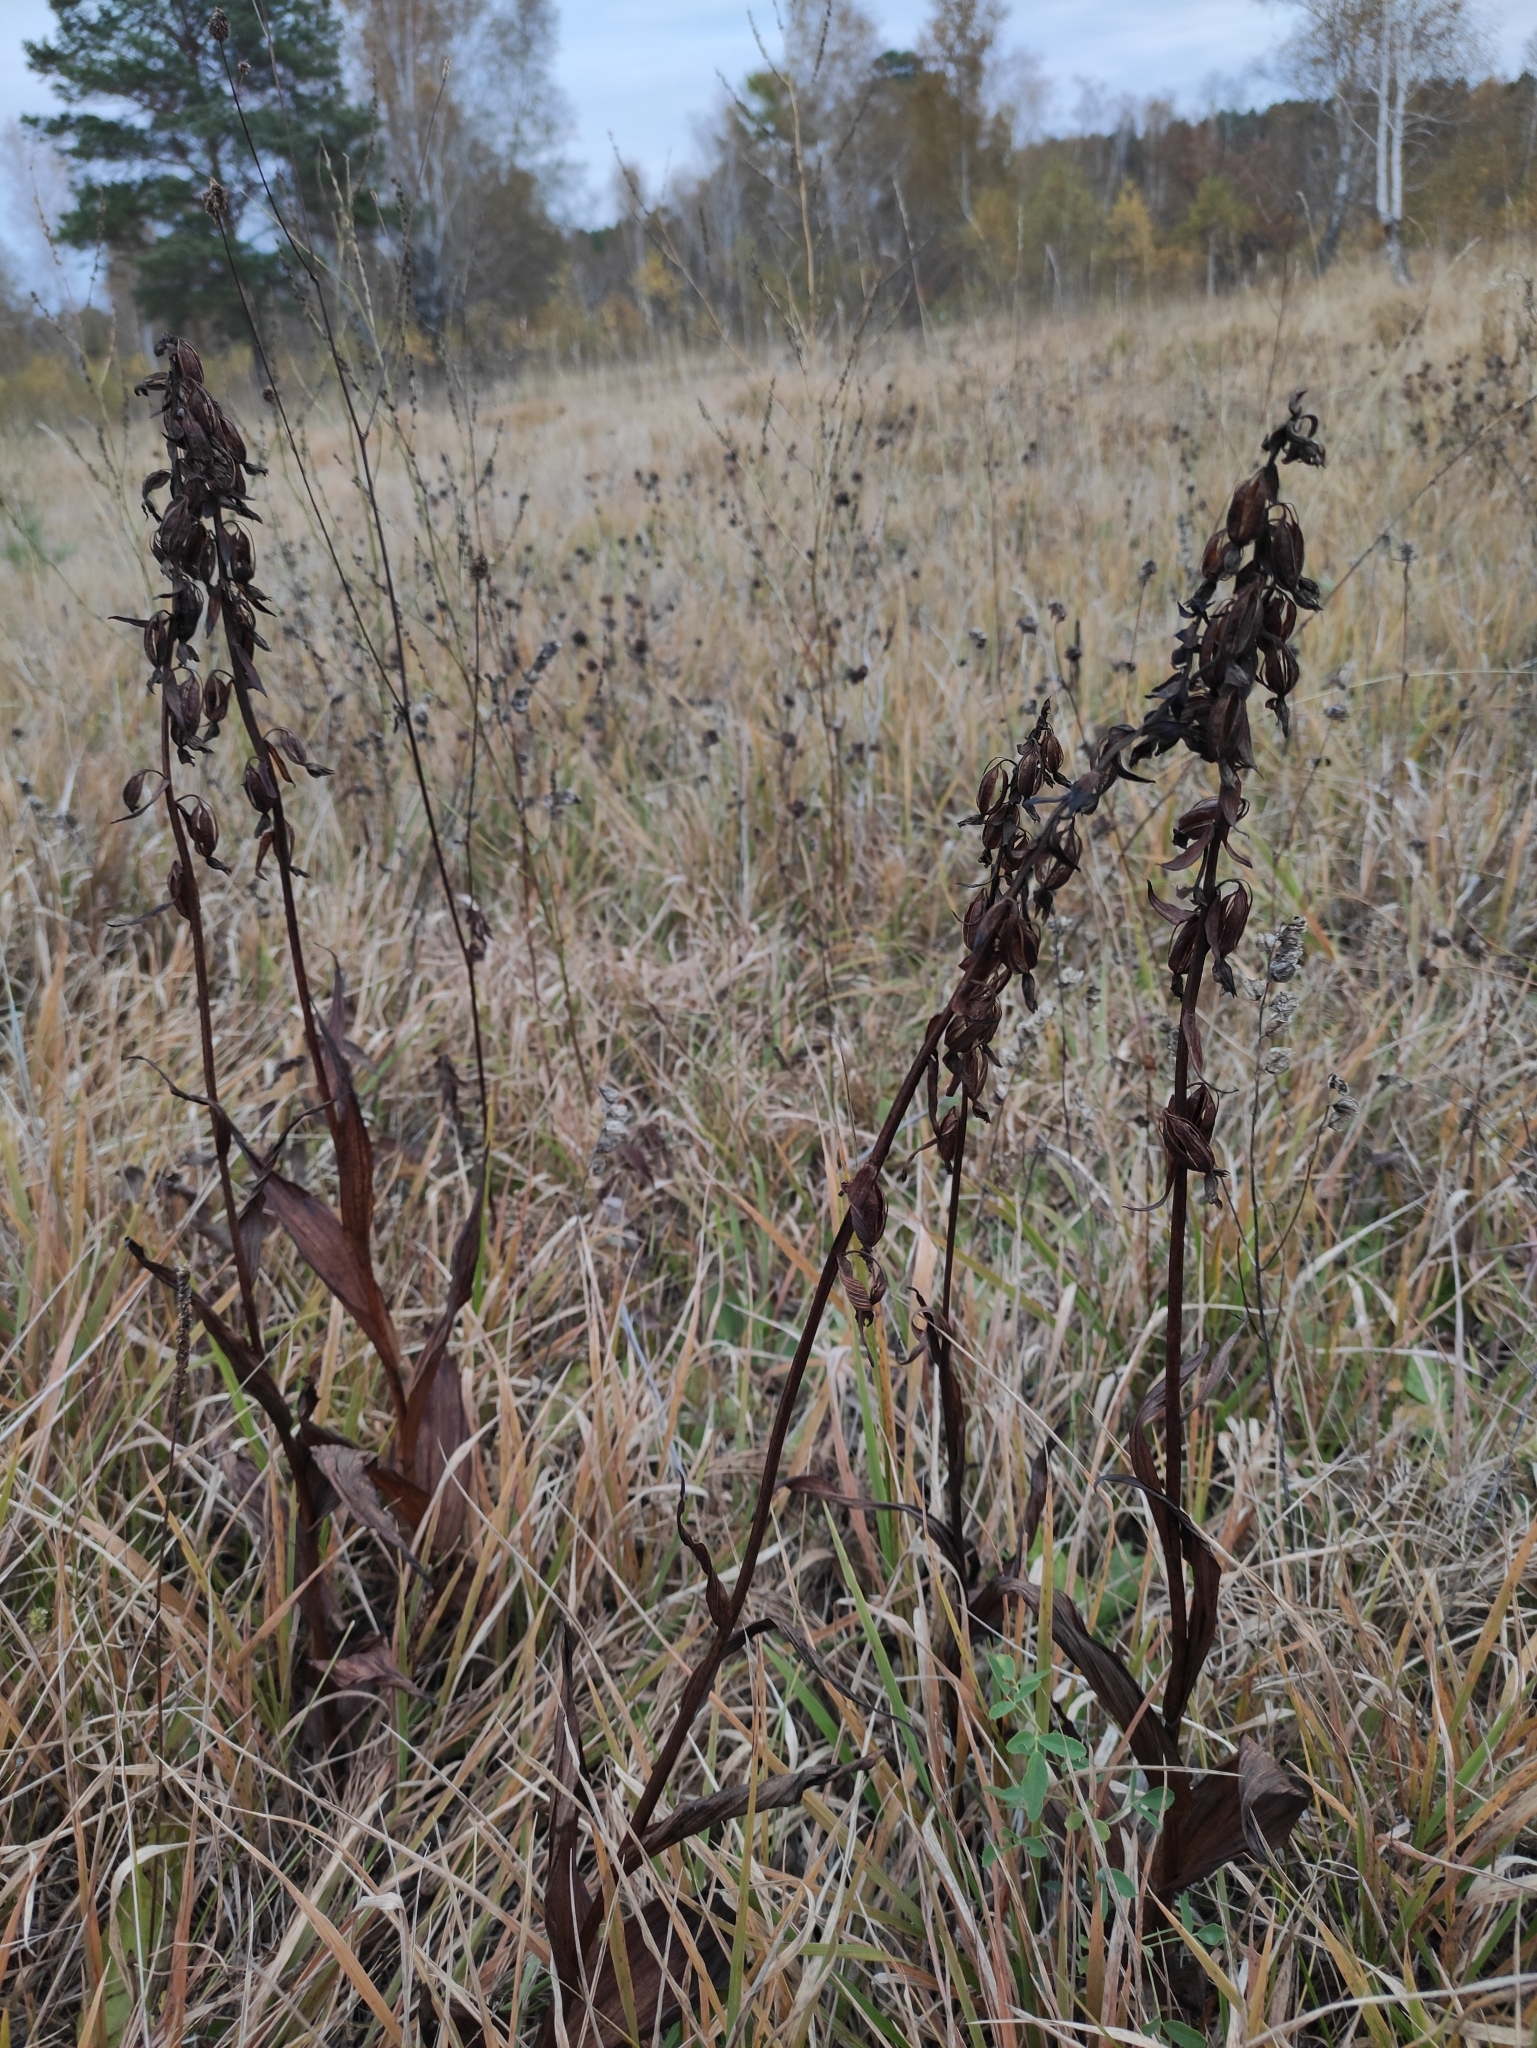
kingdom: Plantae
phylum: Tracheophyta
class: Liliopsida
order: Asparagales
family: Orchidaceae
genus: Epipactis
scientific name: Epipactis palustris
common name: Marsh helleborine
